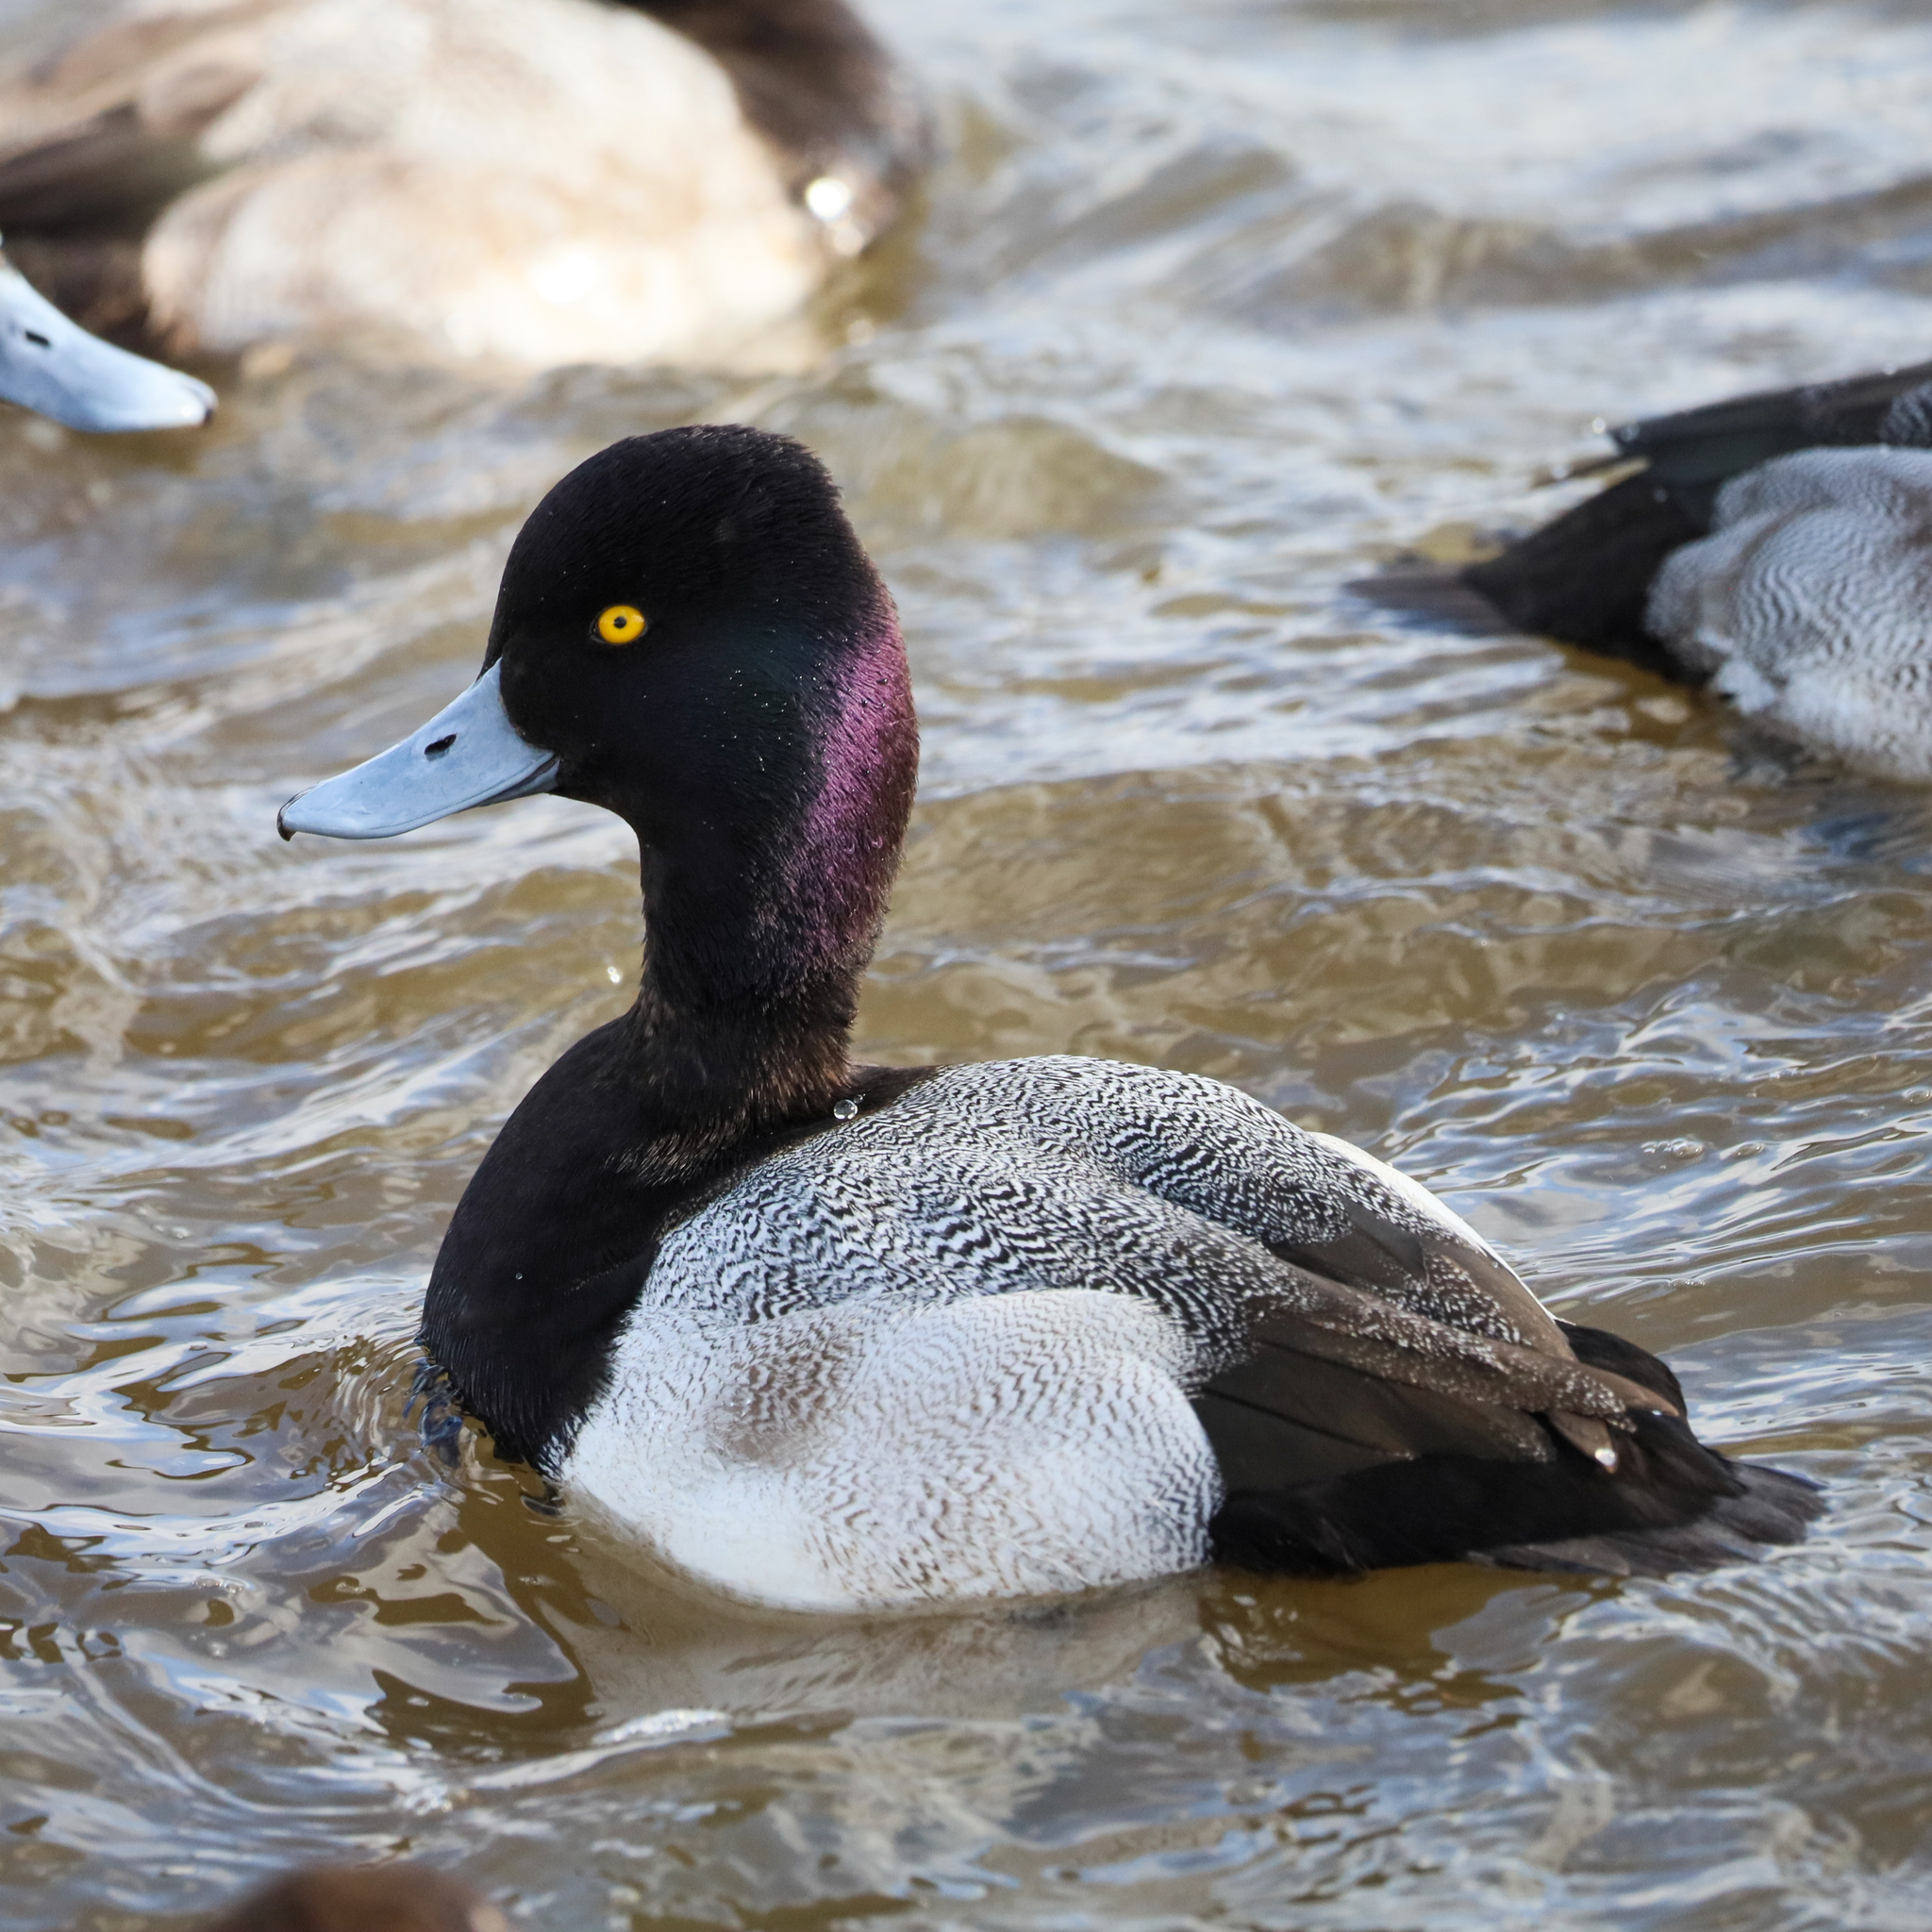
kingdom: Animalia
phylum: Chordata
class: Aves
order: Anseriformes
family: Anatidae
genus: Aythya
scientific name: Aythya affinis
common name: Lesser scaup
